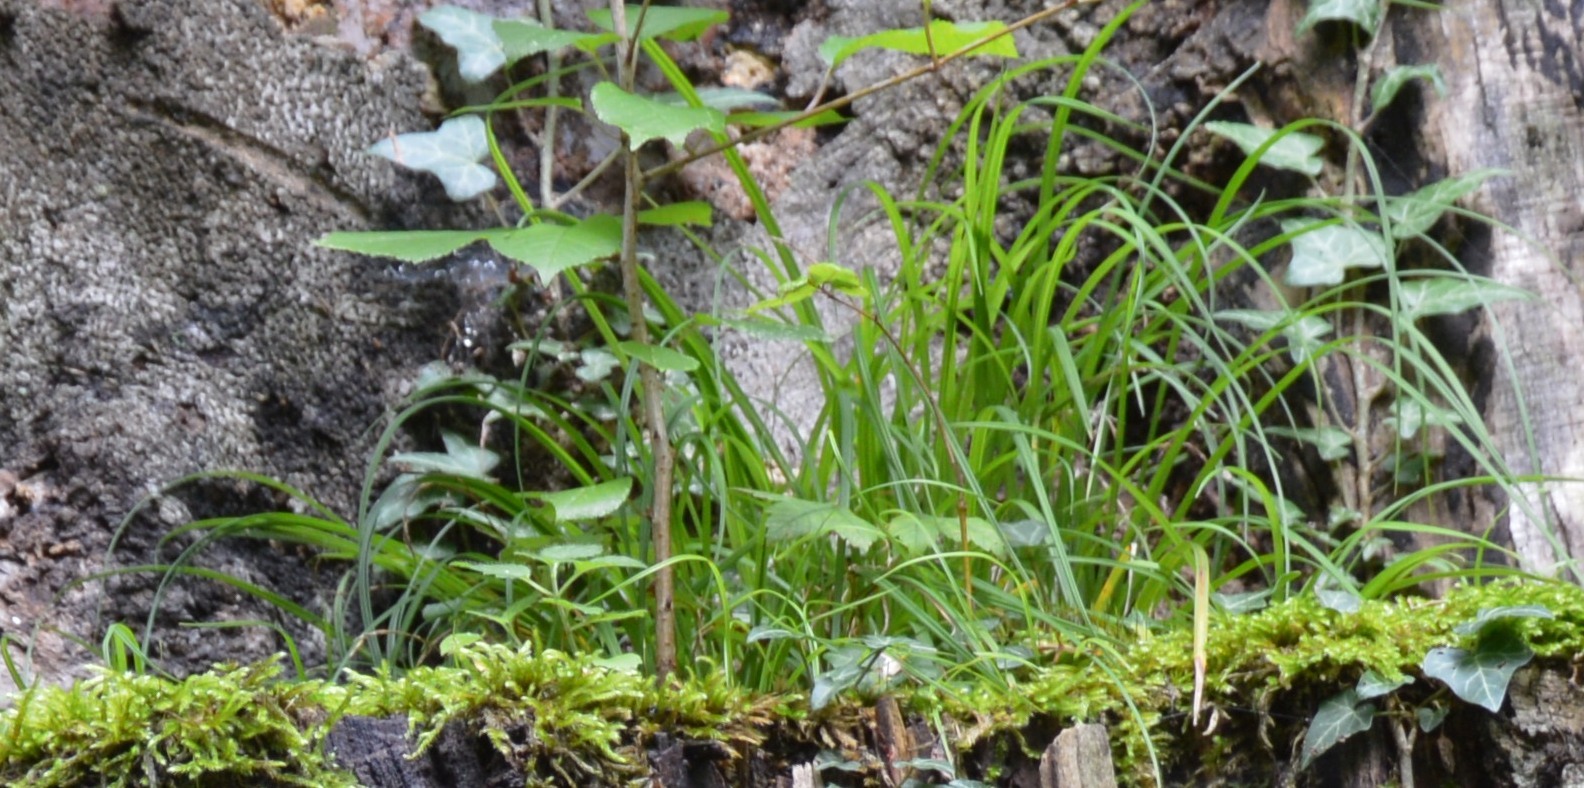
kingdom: Plantae
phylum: Tracheophyta
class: Liliopsida
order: Poales
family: Cyperaceae
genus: Carex
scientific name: Carex
